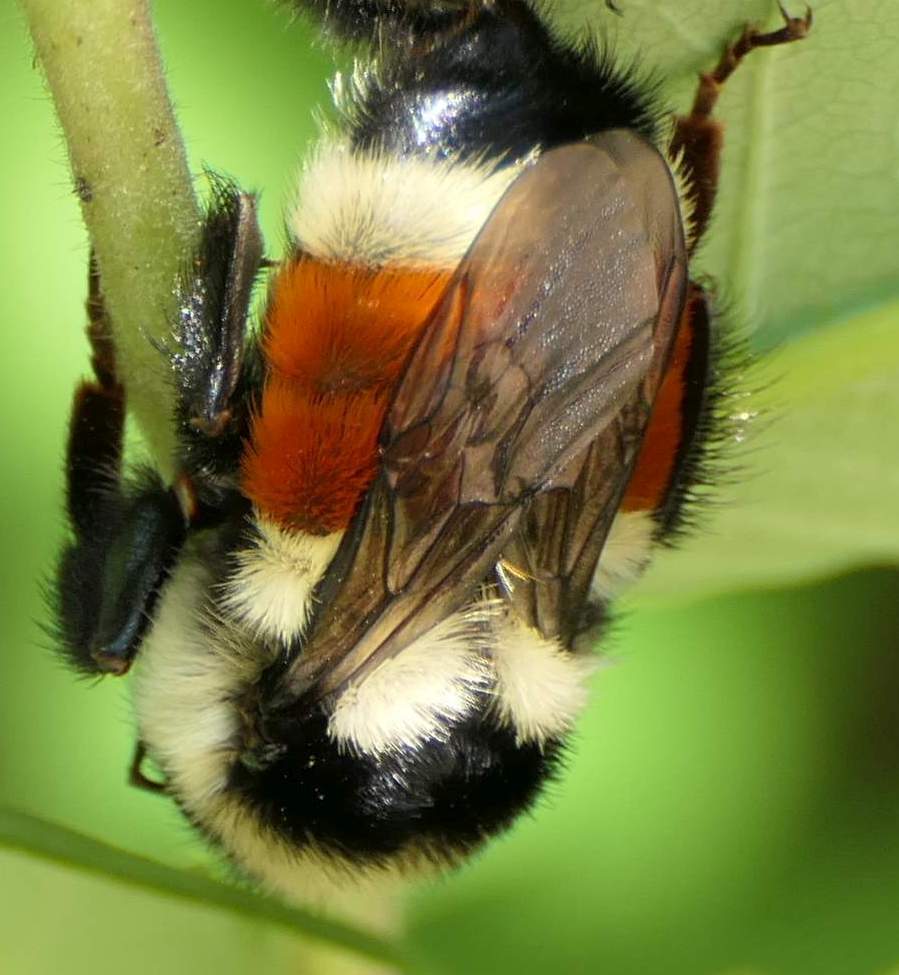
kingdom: Animalia
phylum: Arthropoda
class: Insecta
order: Hymenoptera
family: Apidae
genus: Bombus
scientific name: Bombus ternarius
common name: Tri-colored bumble bee
